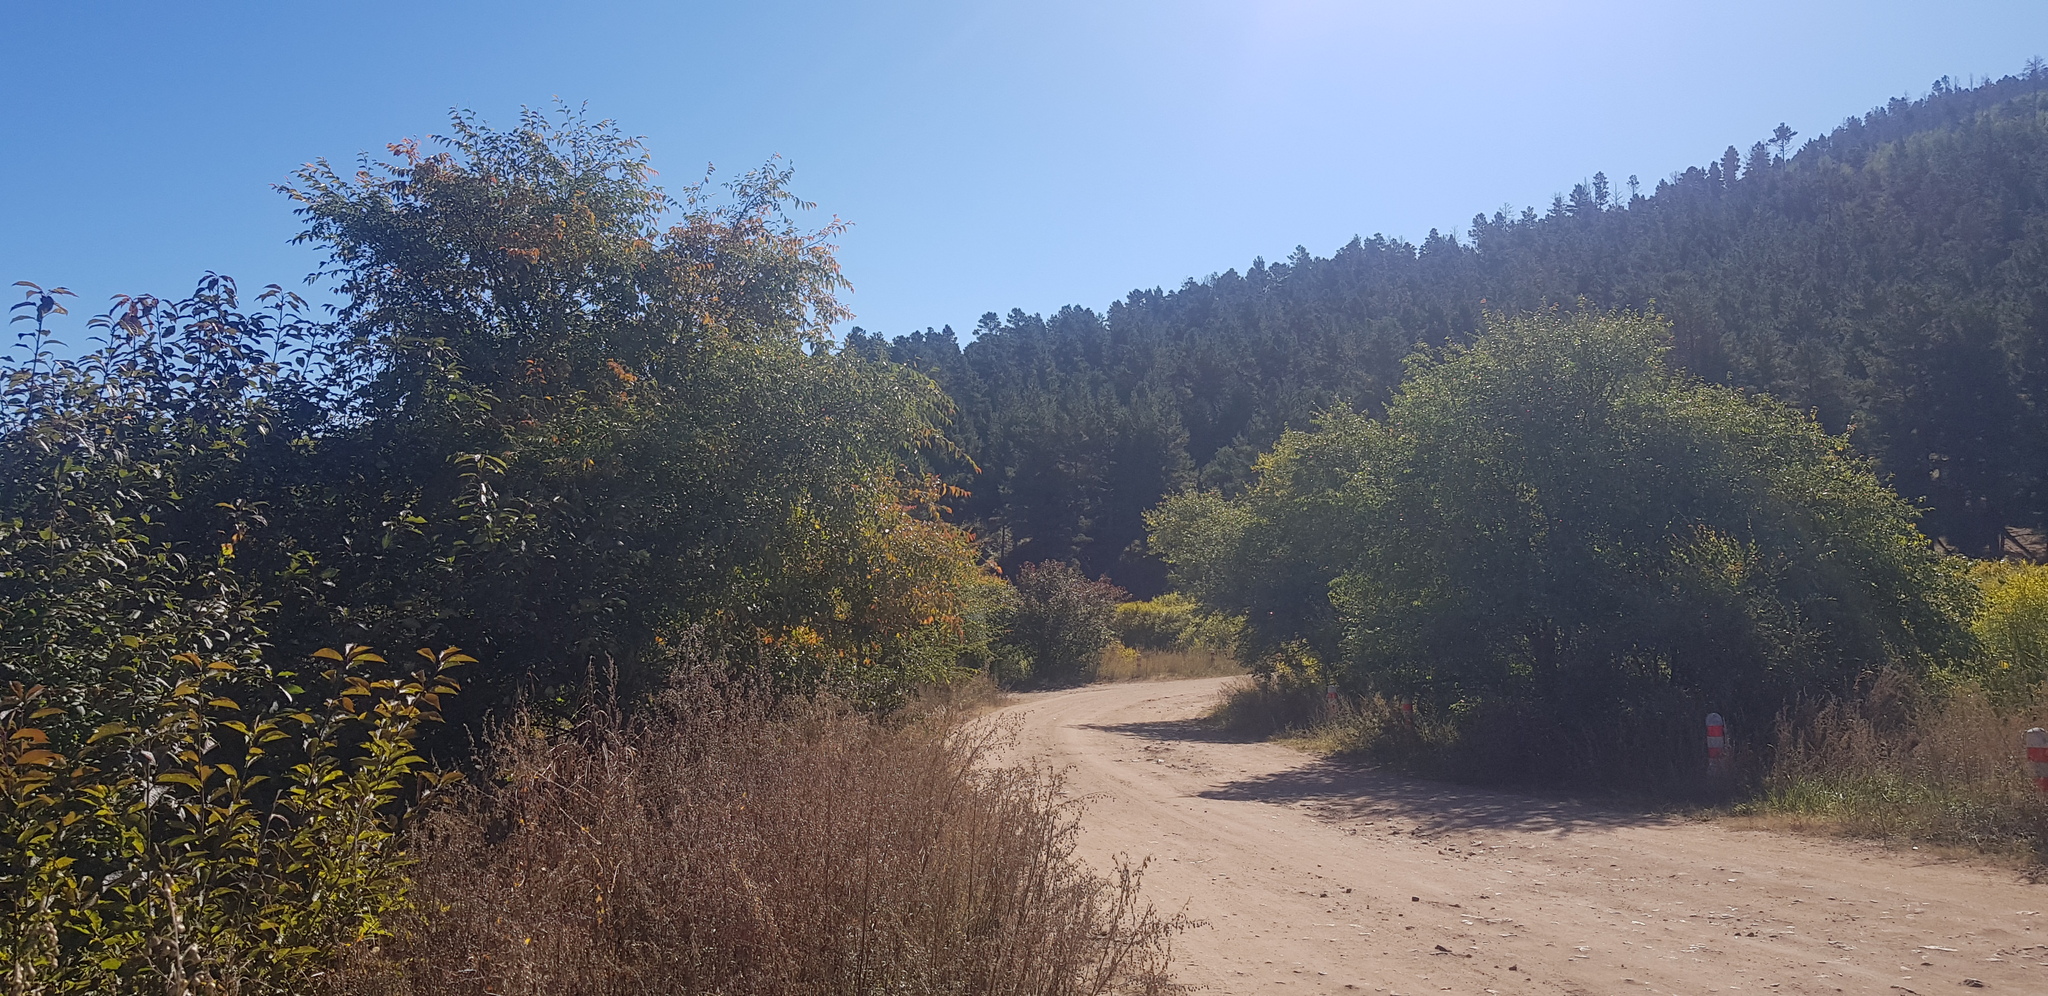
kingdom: Plantae
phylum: Tracheophyta
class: Magnoliopsida
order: Fagales
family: Betulaceae
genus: Betula
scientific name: Betula pendula
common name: Silver birch
